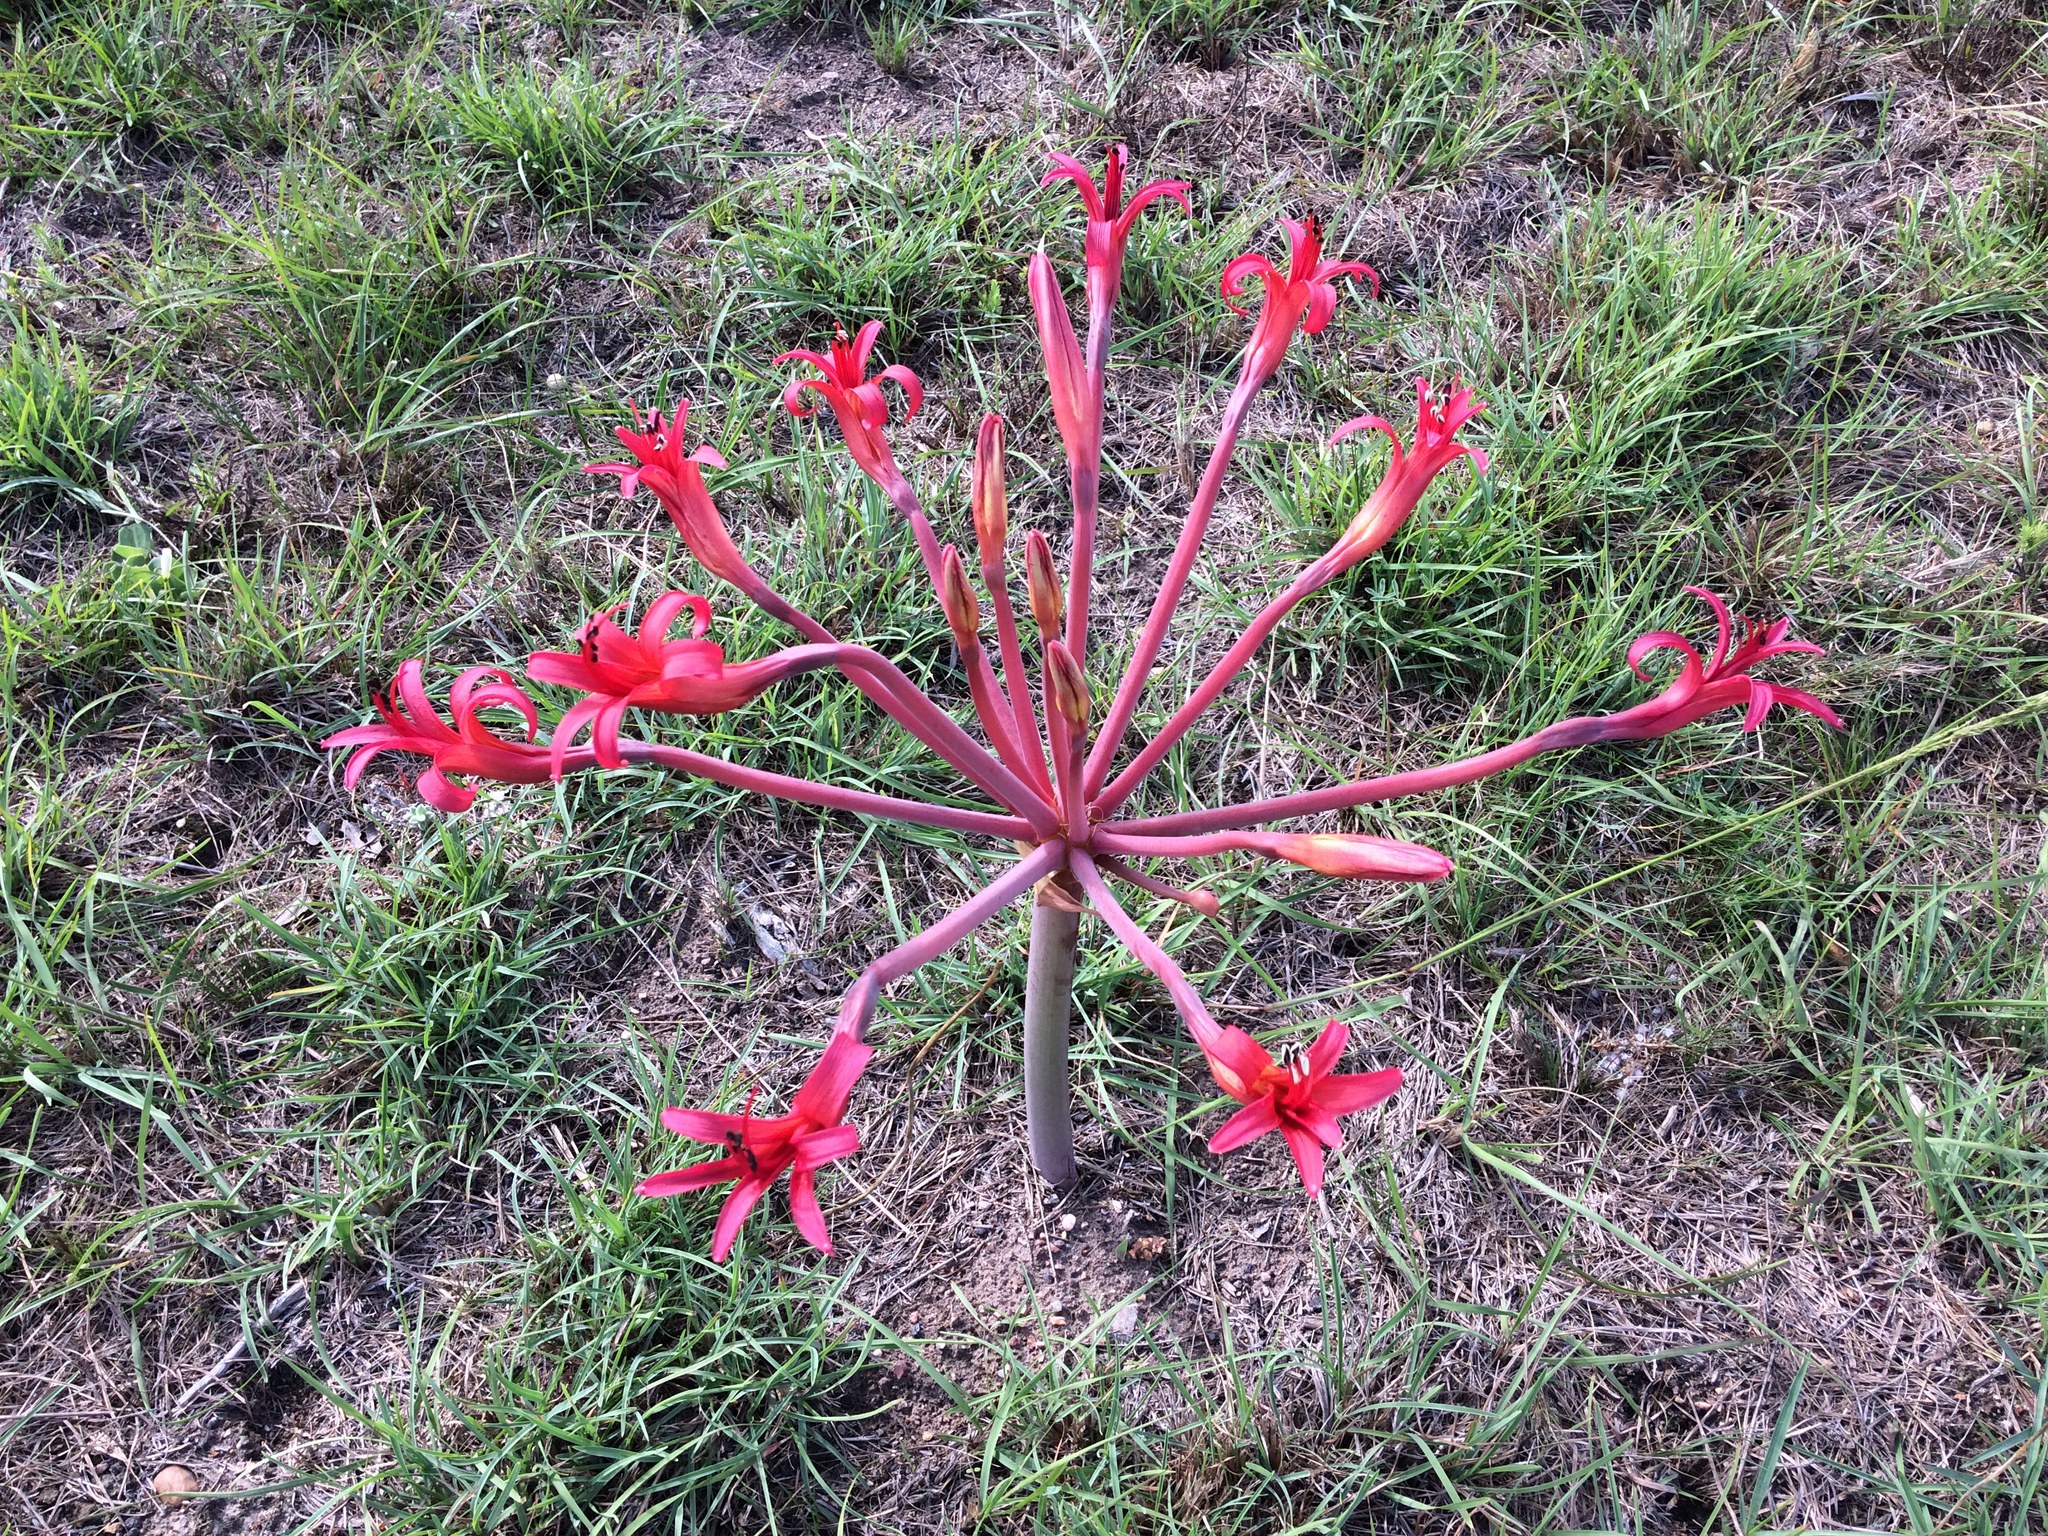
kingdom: Plantae
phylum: Tracheophyta
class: Liliopsida
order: Asparagales
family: Amaryllidaceae
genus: Brunsvigia
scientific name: Brunsvigia litoralis
